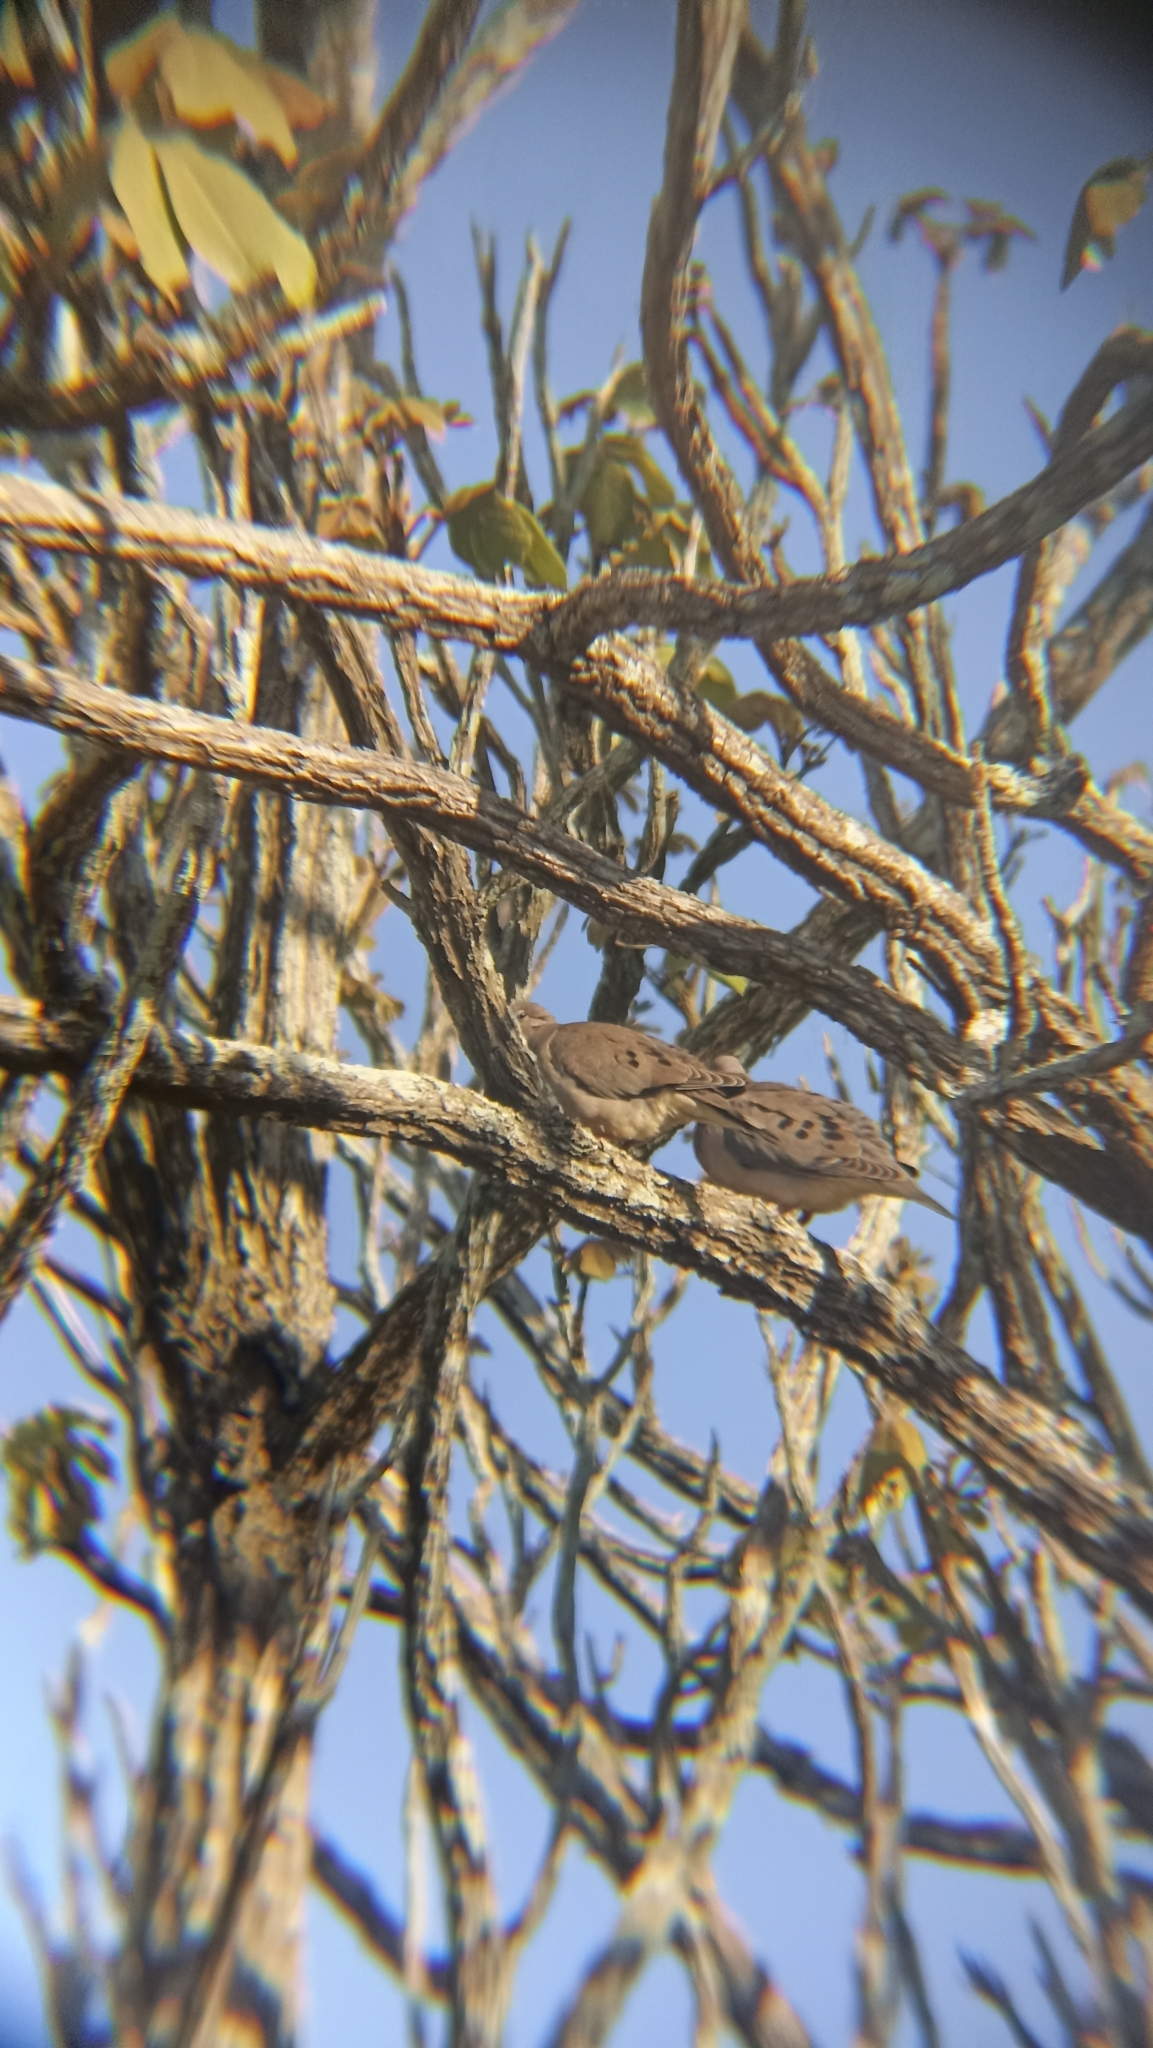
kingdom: Animalia
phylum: Chordata
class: Aves
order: Columbiformes
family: Columbidae
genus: Zenaida
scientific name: Zenaida auriculata
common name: Eared dove
